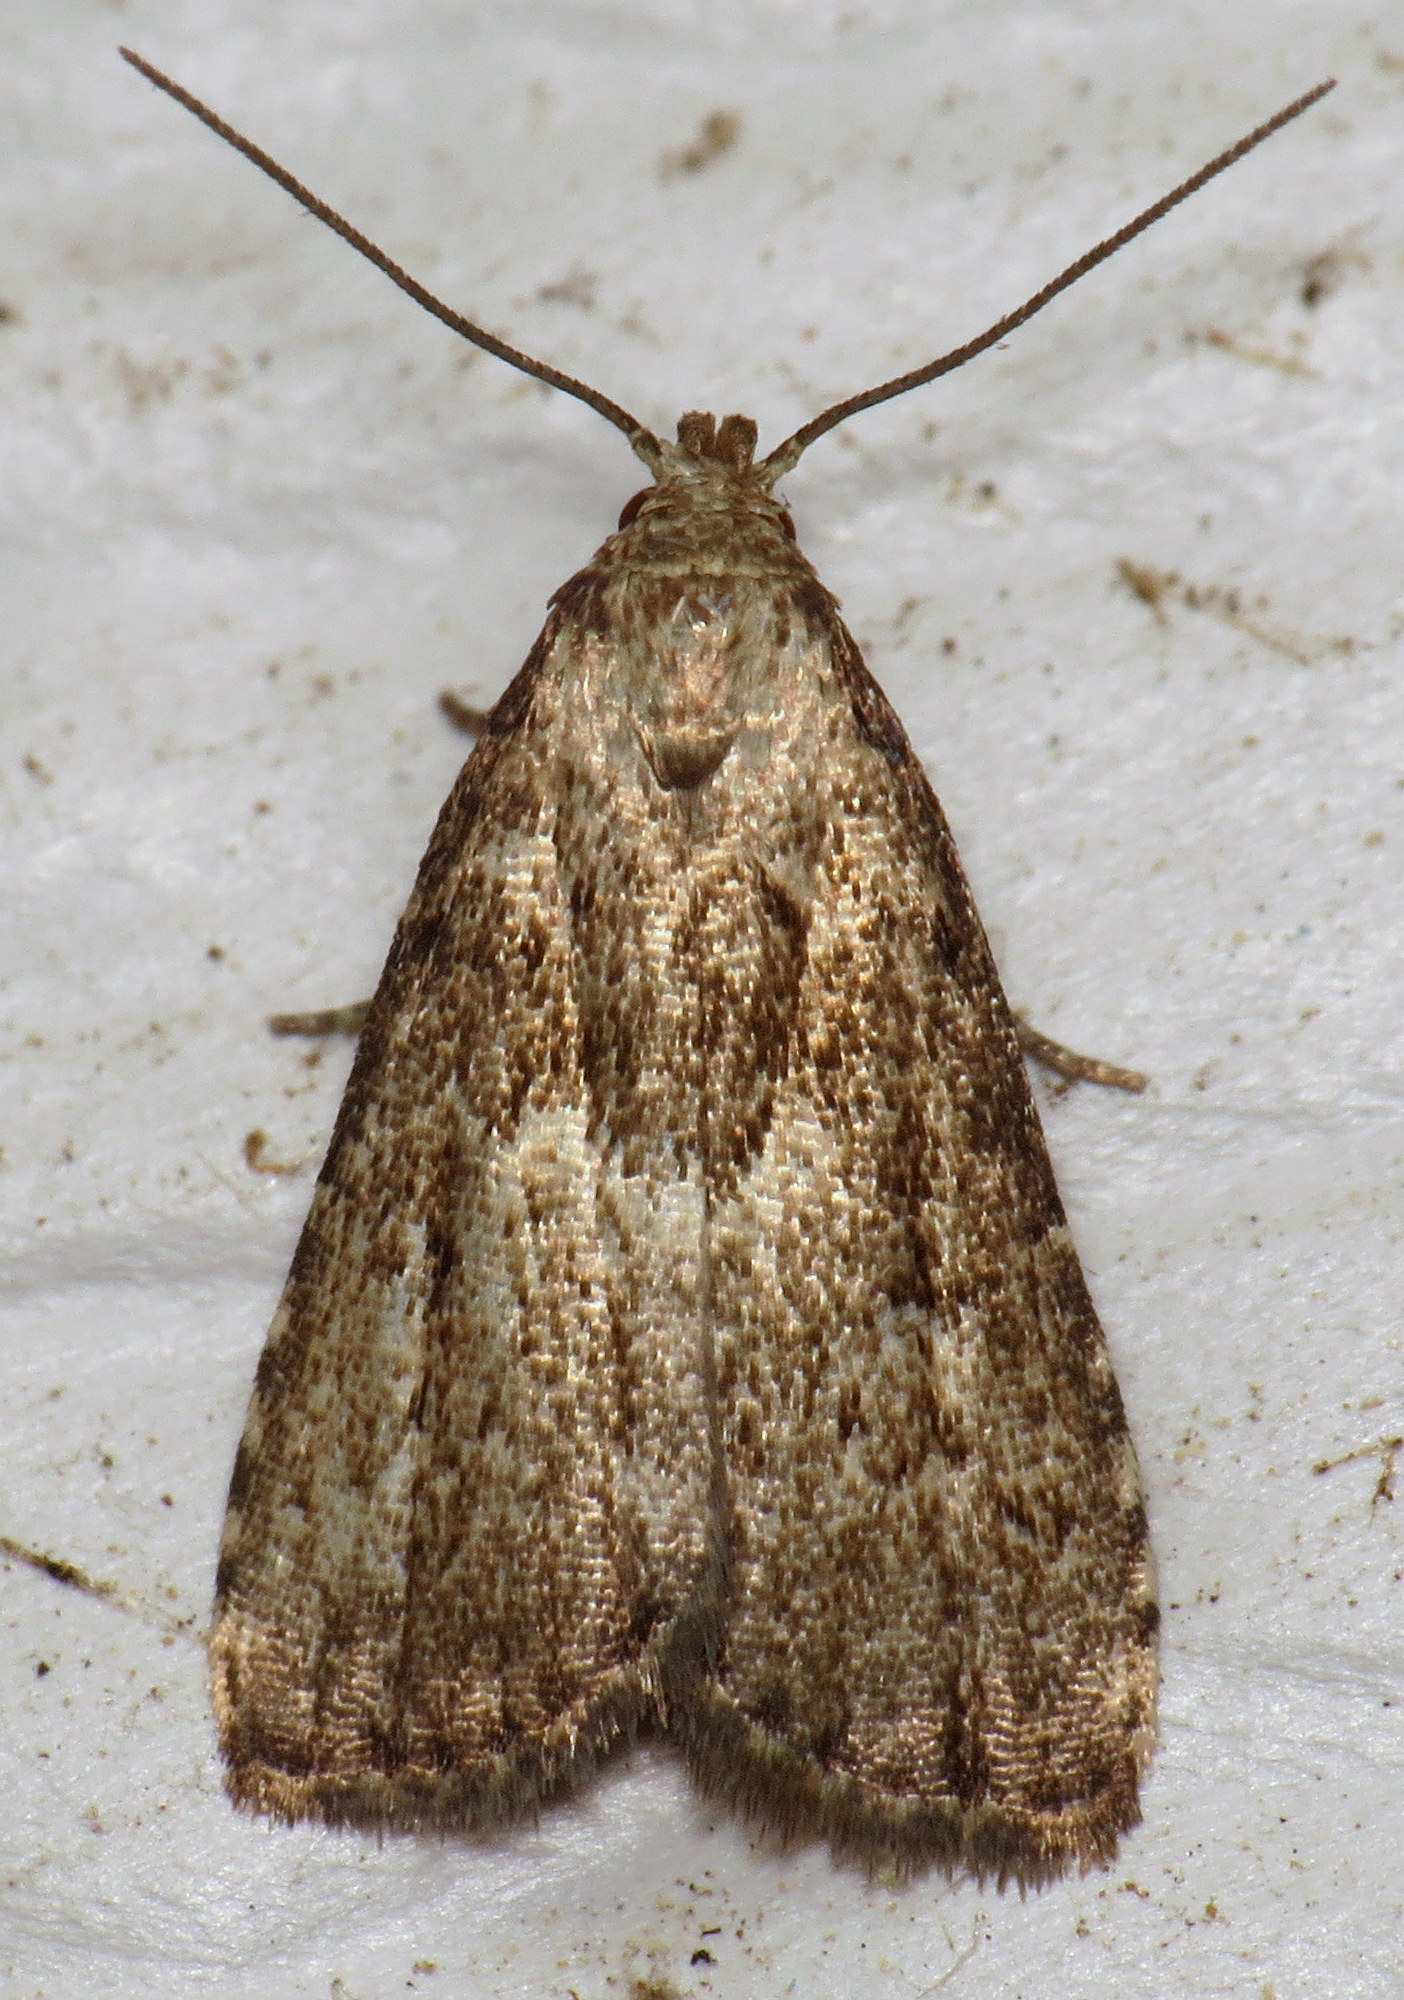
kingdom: Animalia
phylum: Arthropoda
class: Insecta
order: Lepidoptera
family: Erebidae
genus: Hypenodes
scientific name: Hypenodes franclemonti
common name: Franclemont's hypenodes moth
